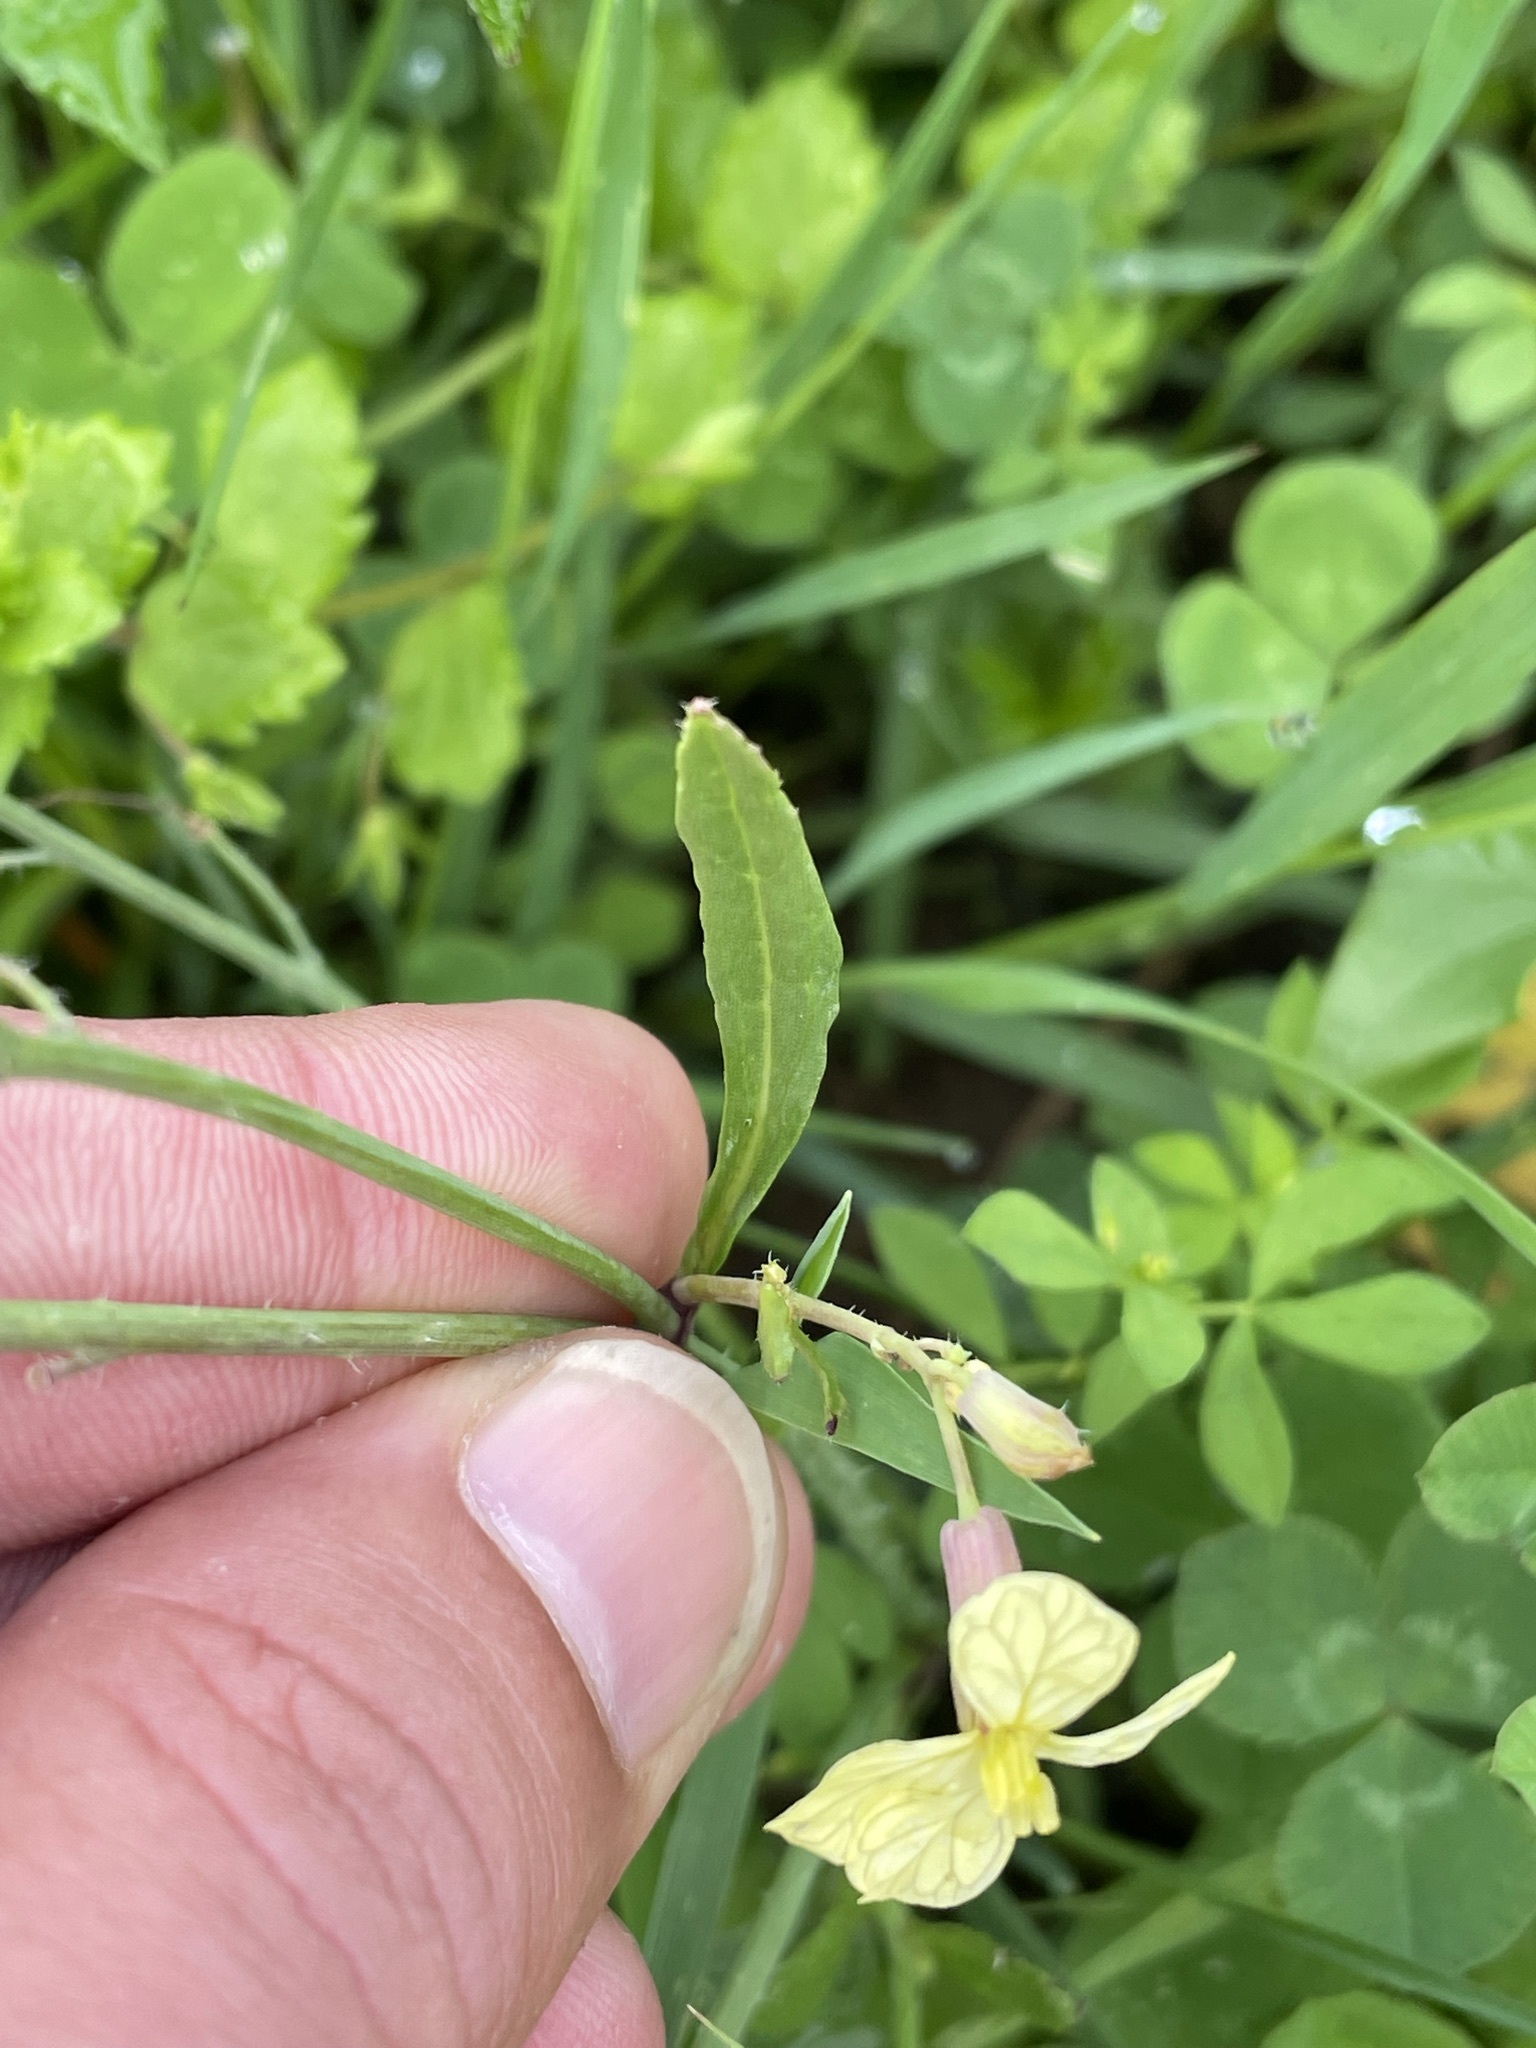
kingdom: Plantae
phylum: Tracheophyta
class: Magnoliopsida
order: Brassicales
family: Brassicaceae
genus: Raphanus
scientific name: Raphanus raphanistrum
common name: Wild radish
